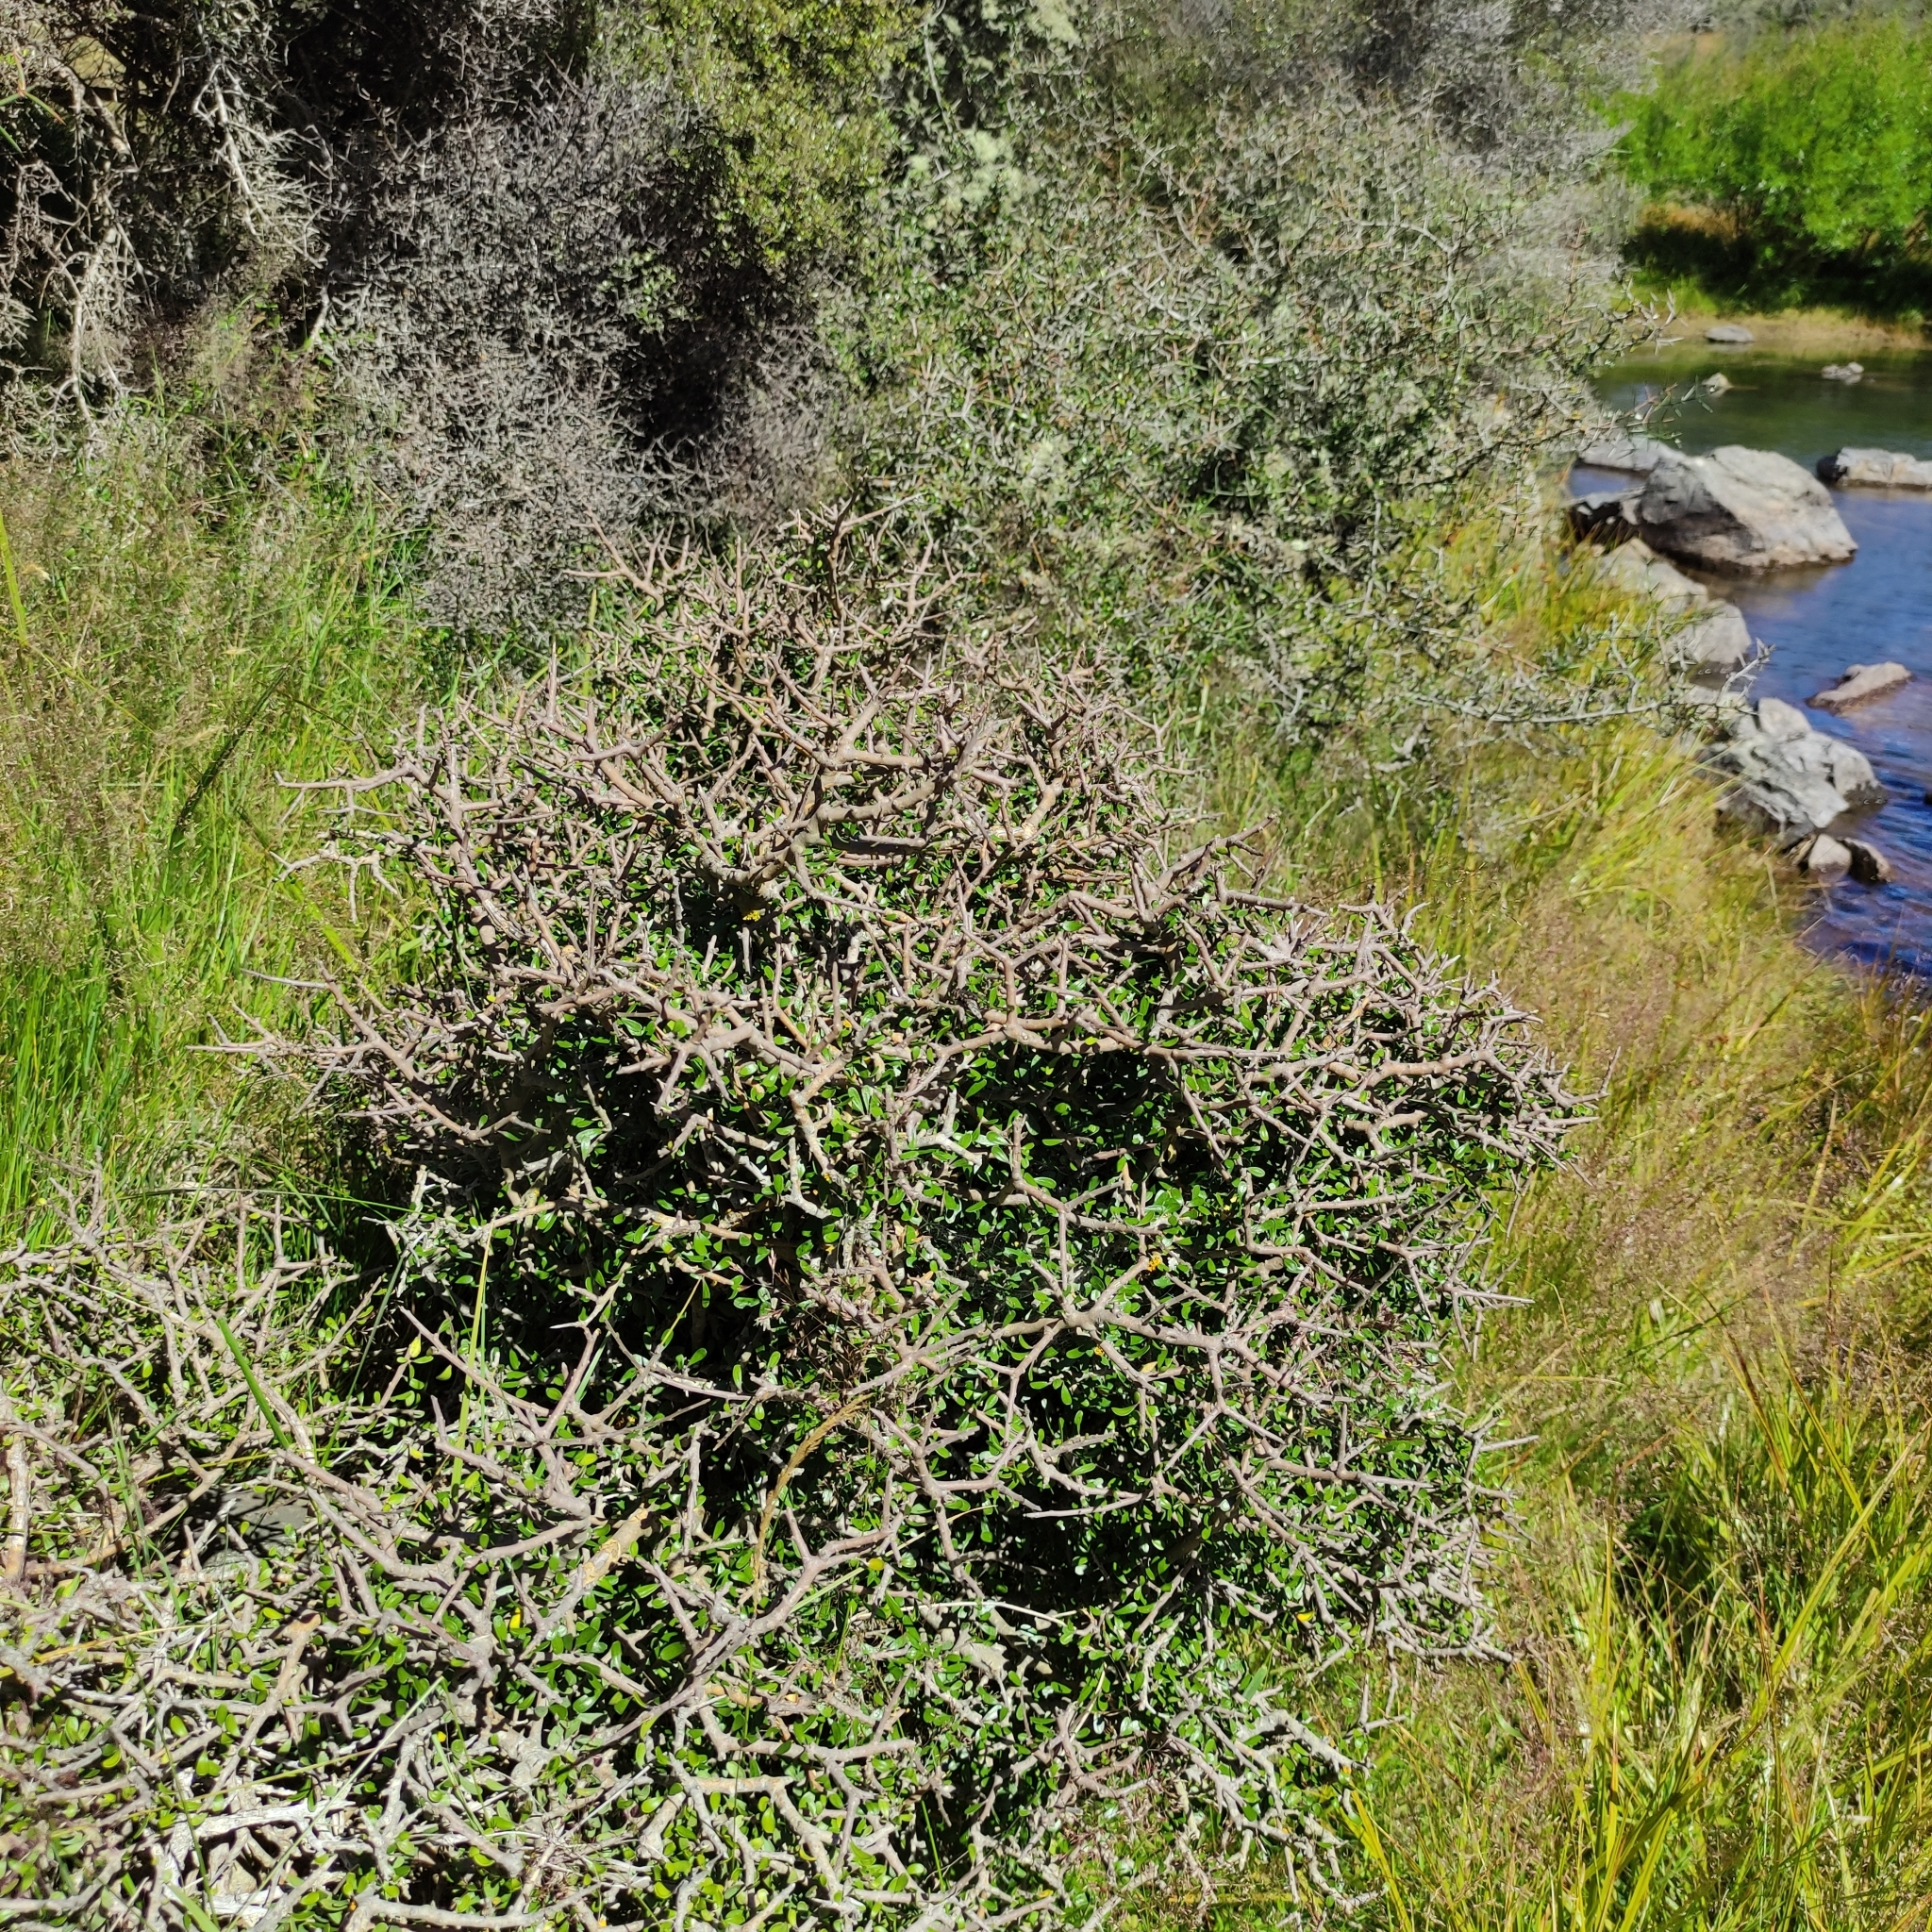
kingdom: Plantae
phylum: Tracheophyta
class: Magnoliopsida
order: Malpighiales
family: Violaceae
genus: Melicytus
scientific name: Melicytus alpinus
